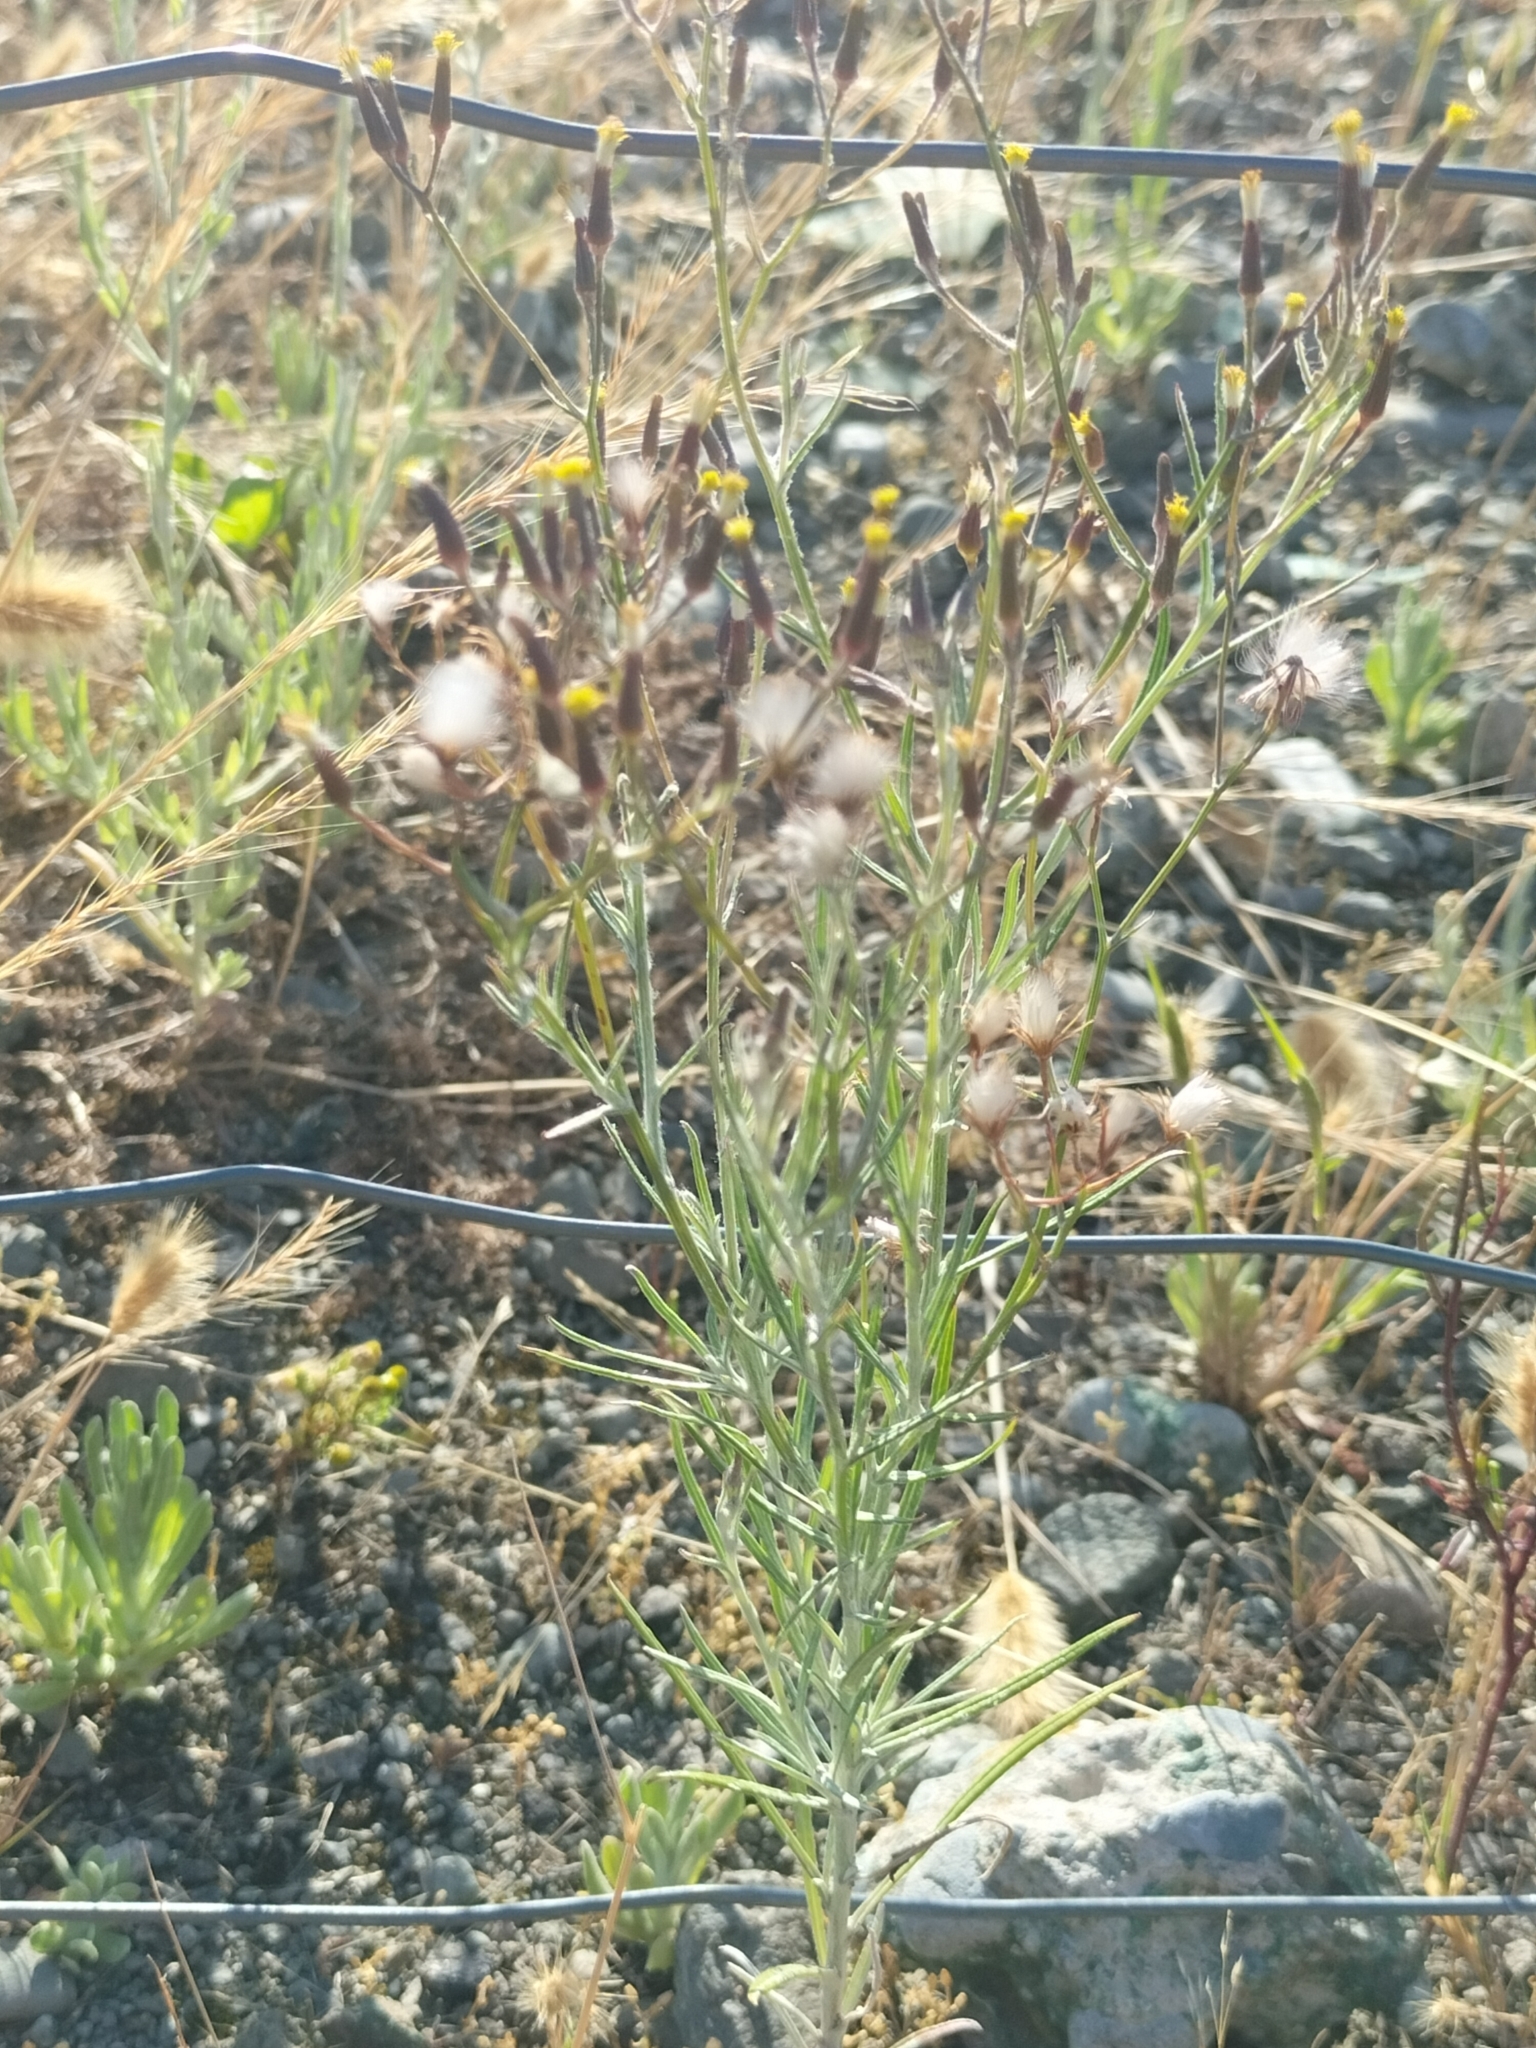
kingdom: Plantae
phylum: Tracheophyta
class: Magnoliopsida
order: Asterales
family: Asteraceae
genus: Senecio
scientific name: Senecio quadridentatus
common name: Cotton fireweed
